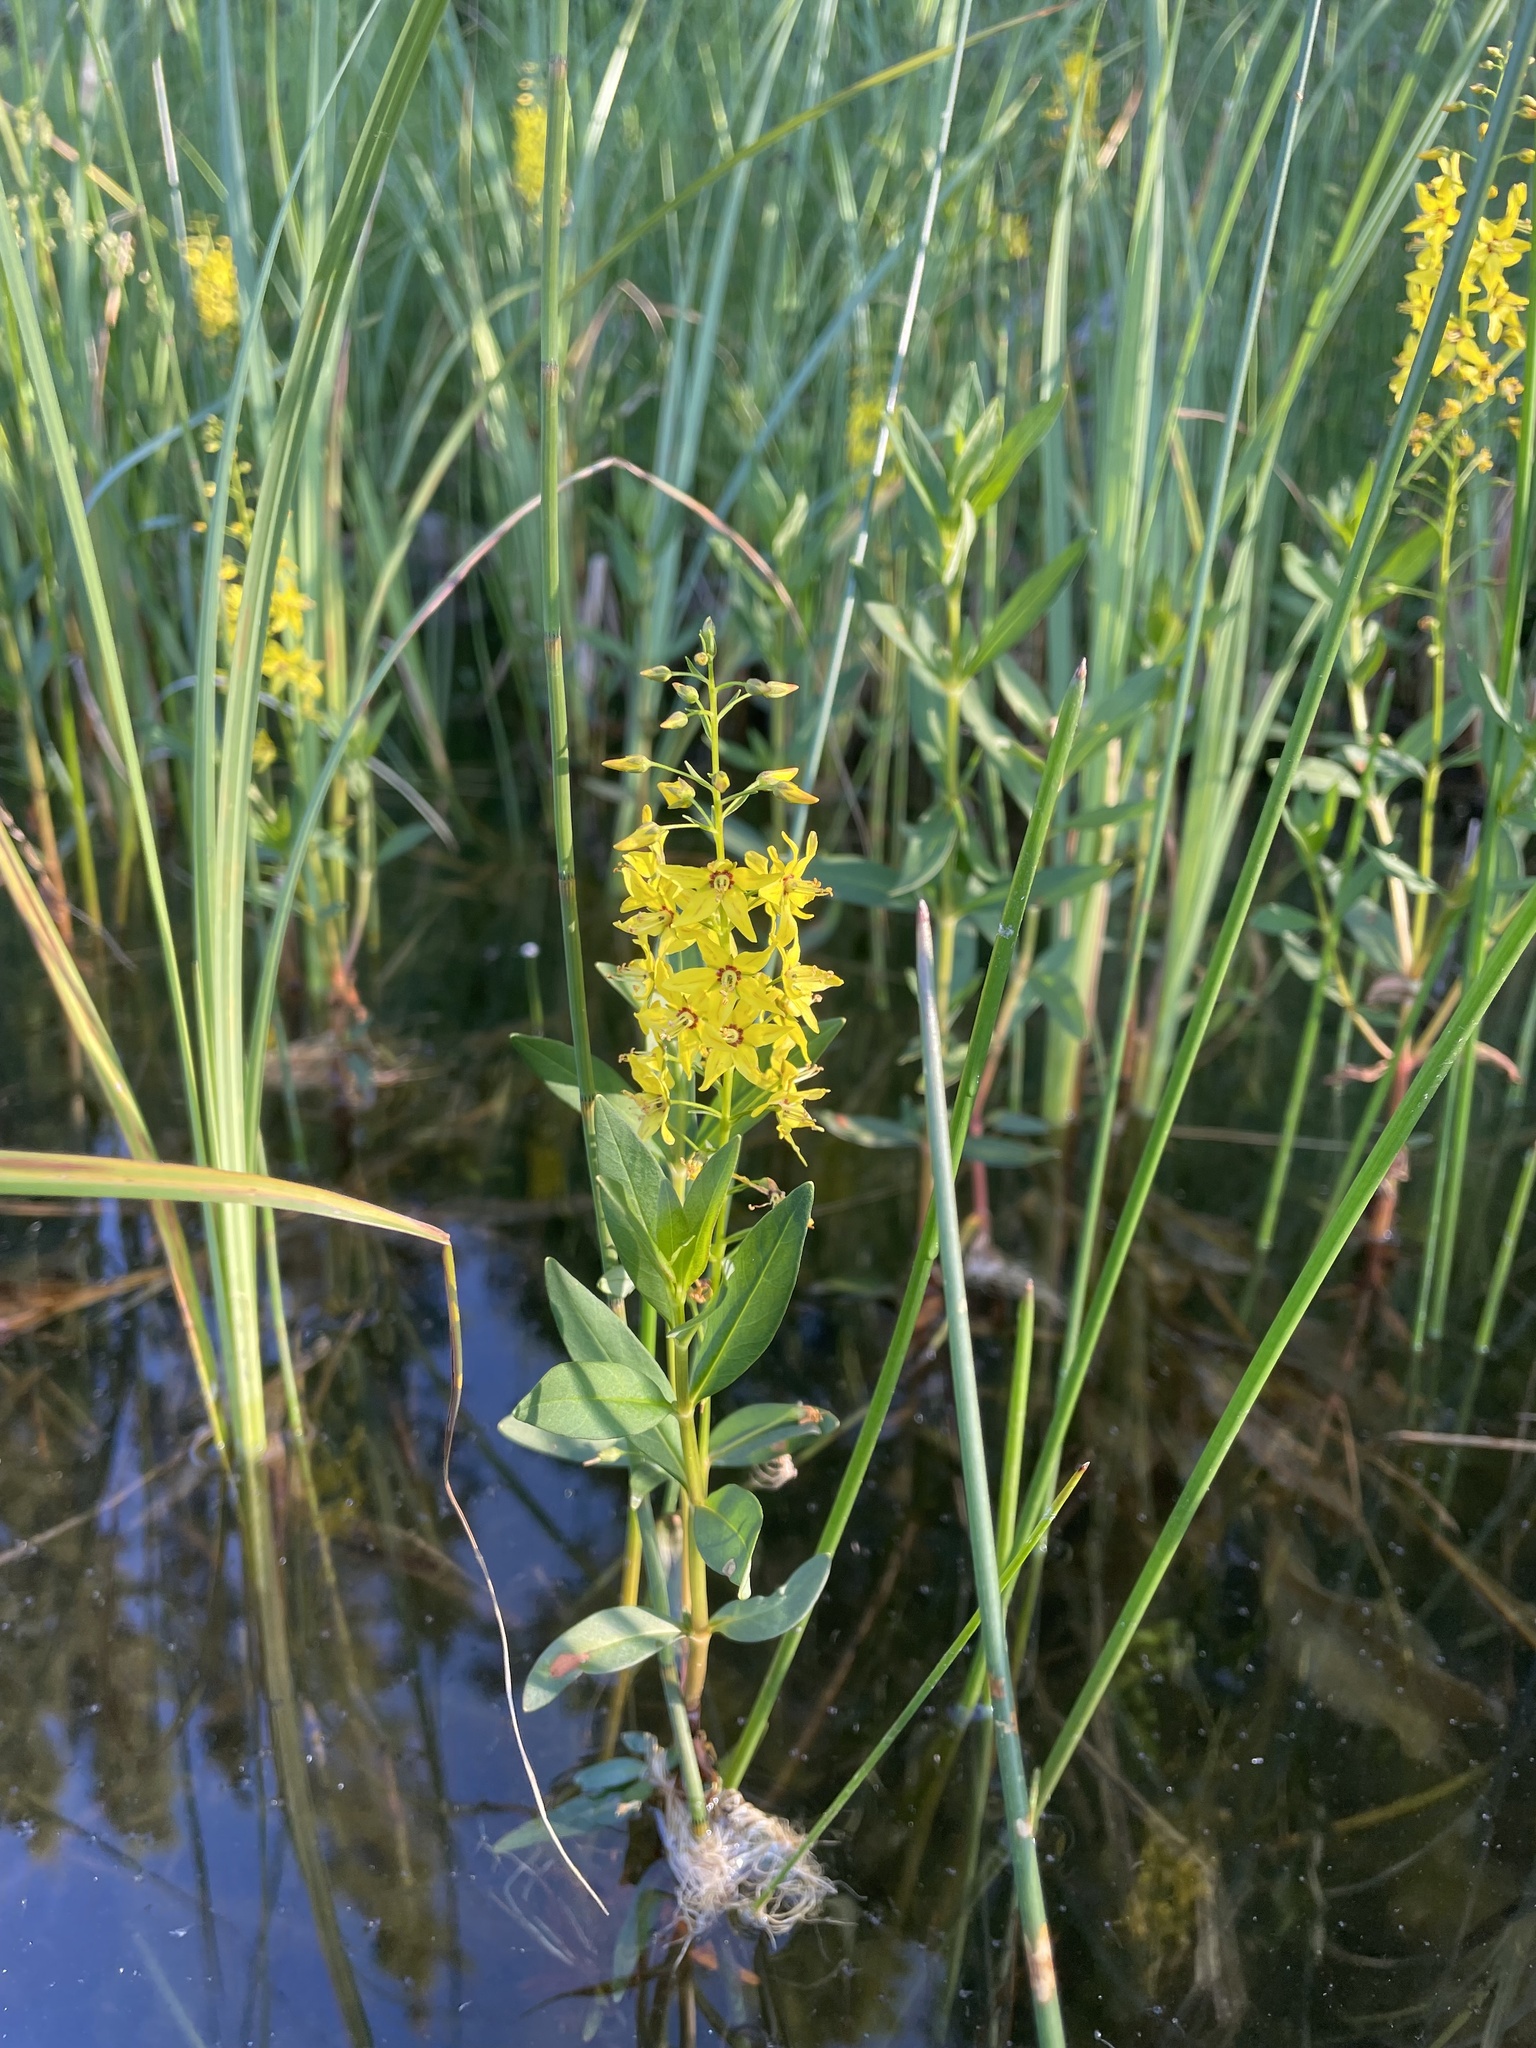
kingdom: Plantae
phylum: Tracheophyta
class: Magnoliopsida
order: Ericales
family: Primulaceae
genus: Lysimachia
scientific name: Lysimachia terrestris
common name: Lake loosestrife
